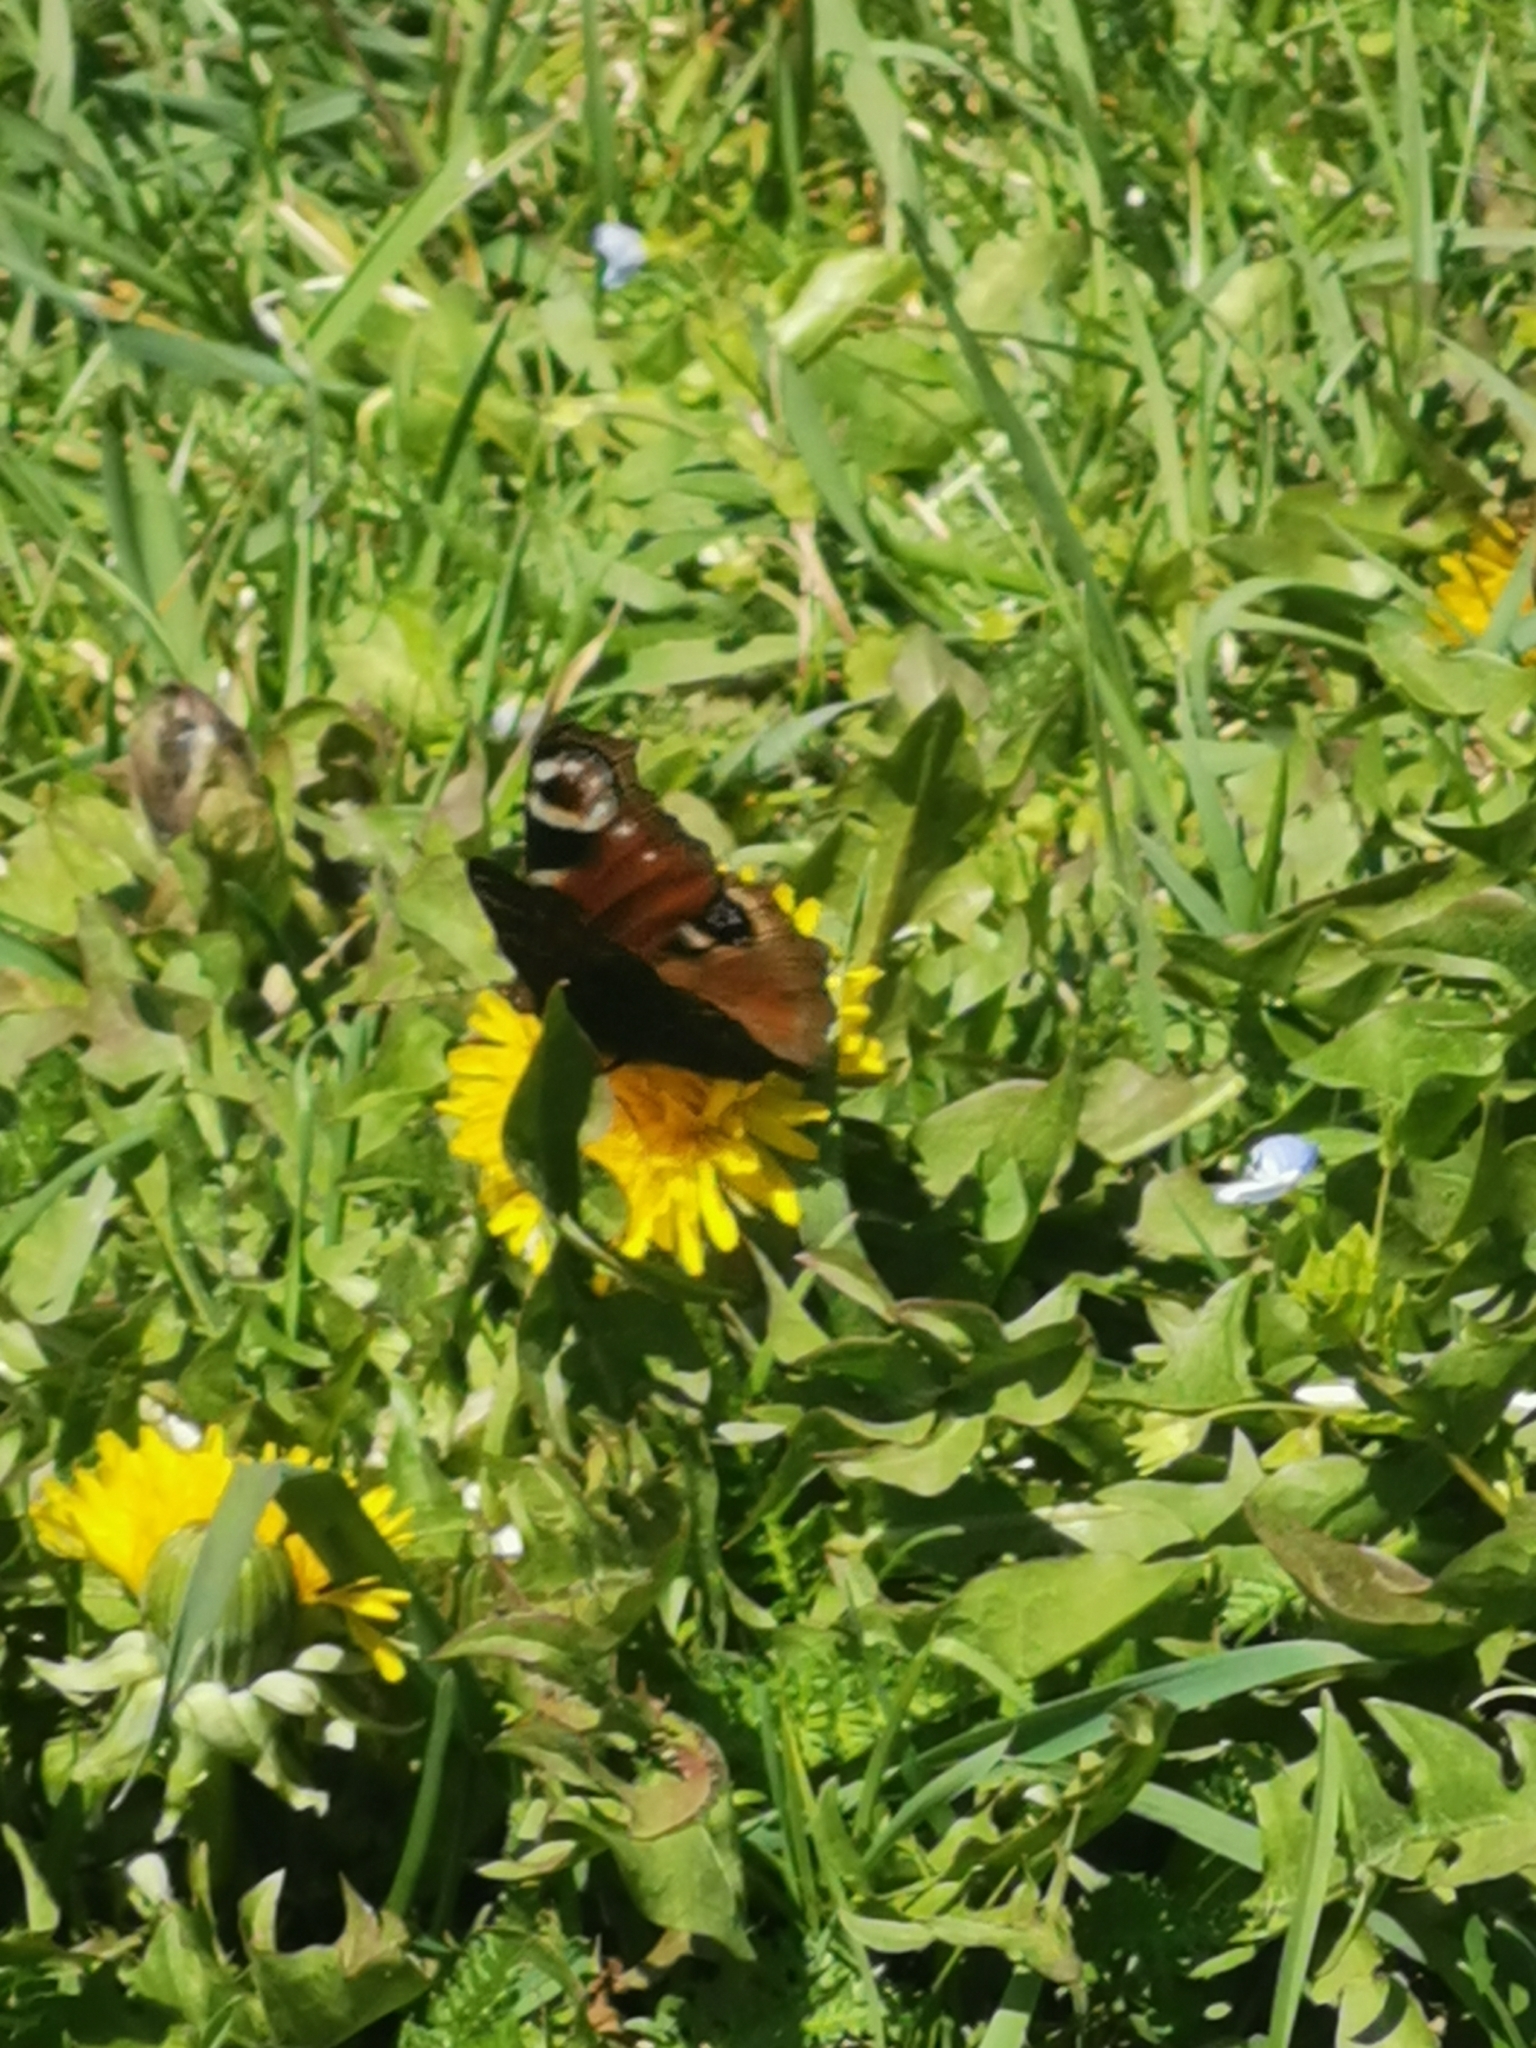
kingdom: Animalia
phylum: Arthropoda
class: Insecta
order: Lepidoptera
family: Nymphalidae
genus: Aglais
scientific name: Aglais io
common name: Peacock
